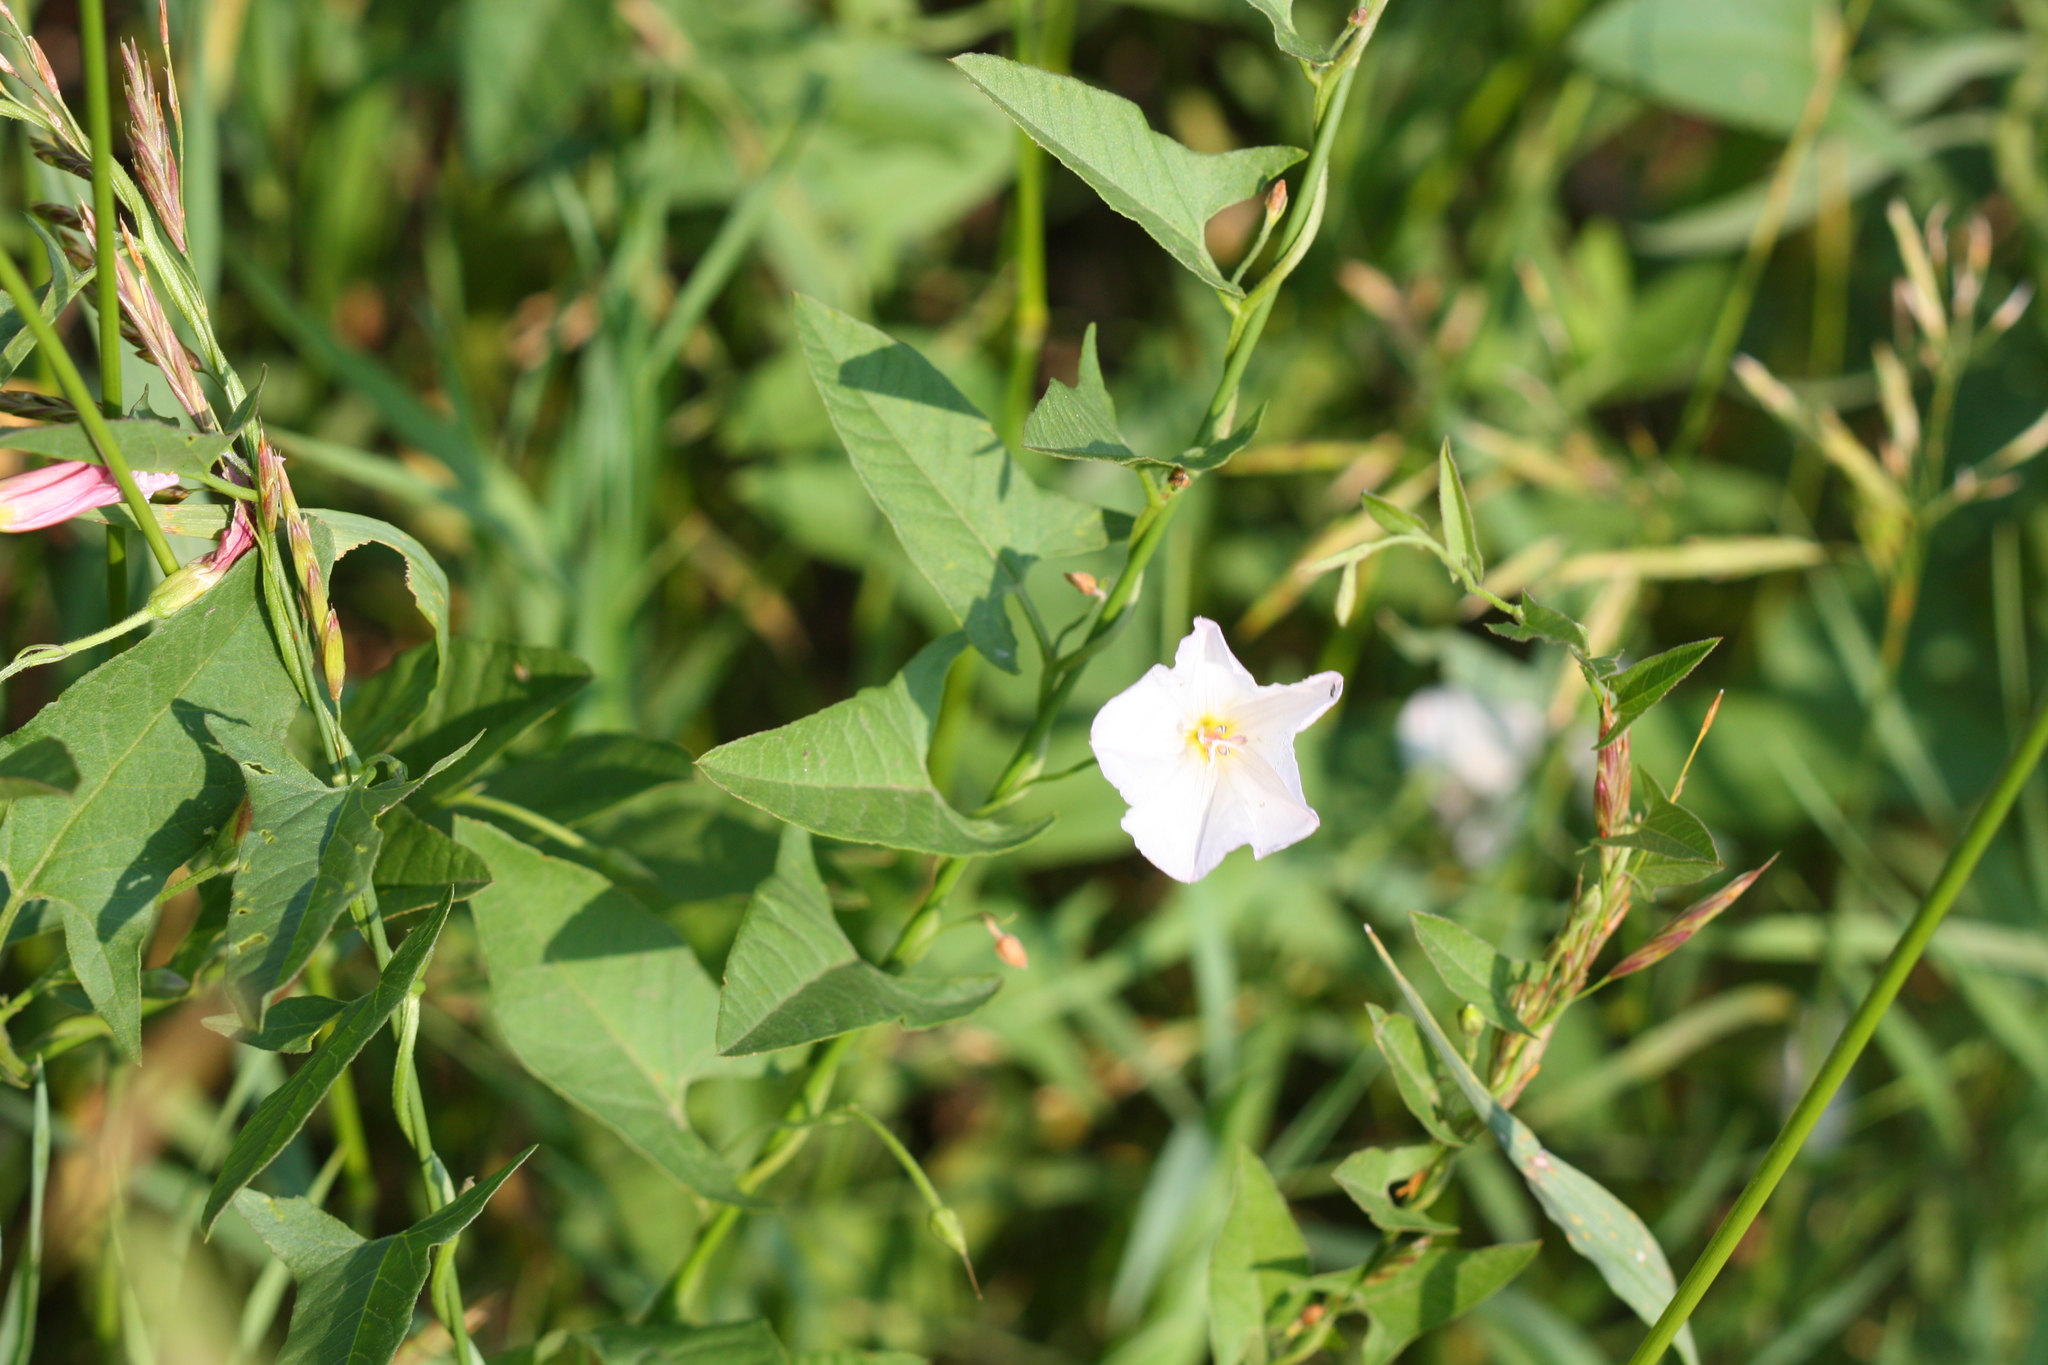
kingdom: Plantae
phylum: Tracheophyta
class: Magnoliopsida
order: Solanales
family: Convolvulaceae
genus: Convolvulus
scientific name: Convolvulus arvensis
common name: Field bindweed
